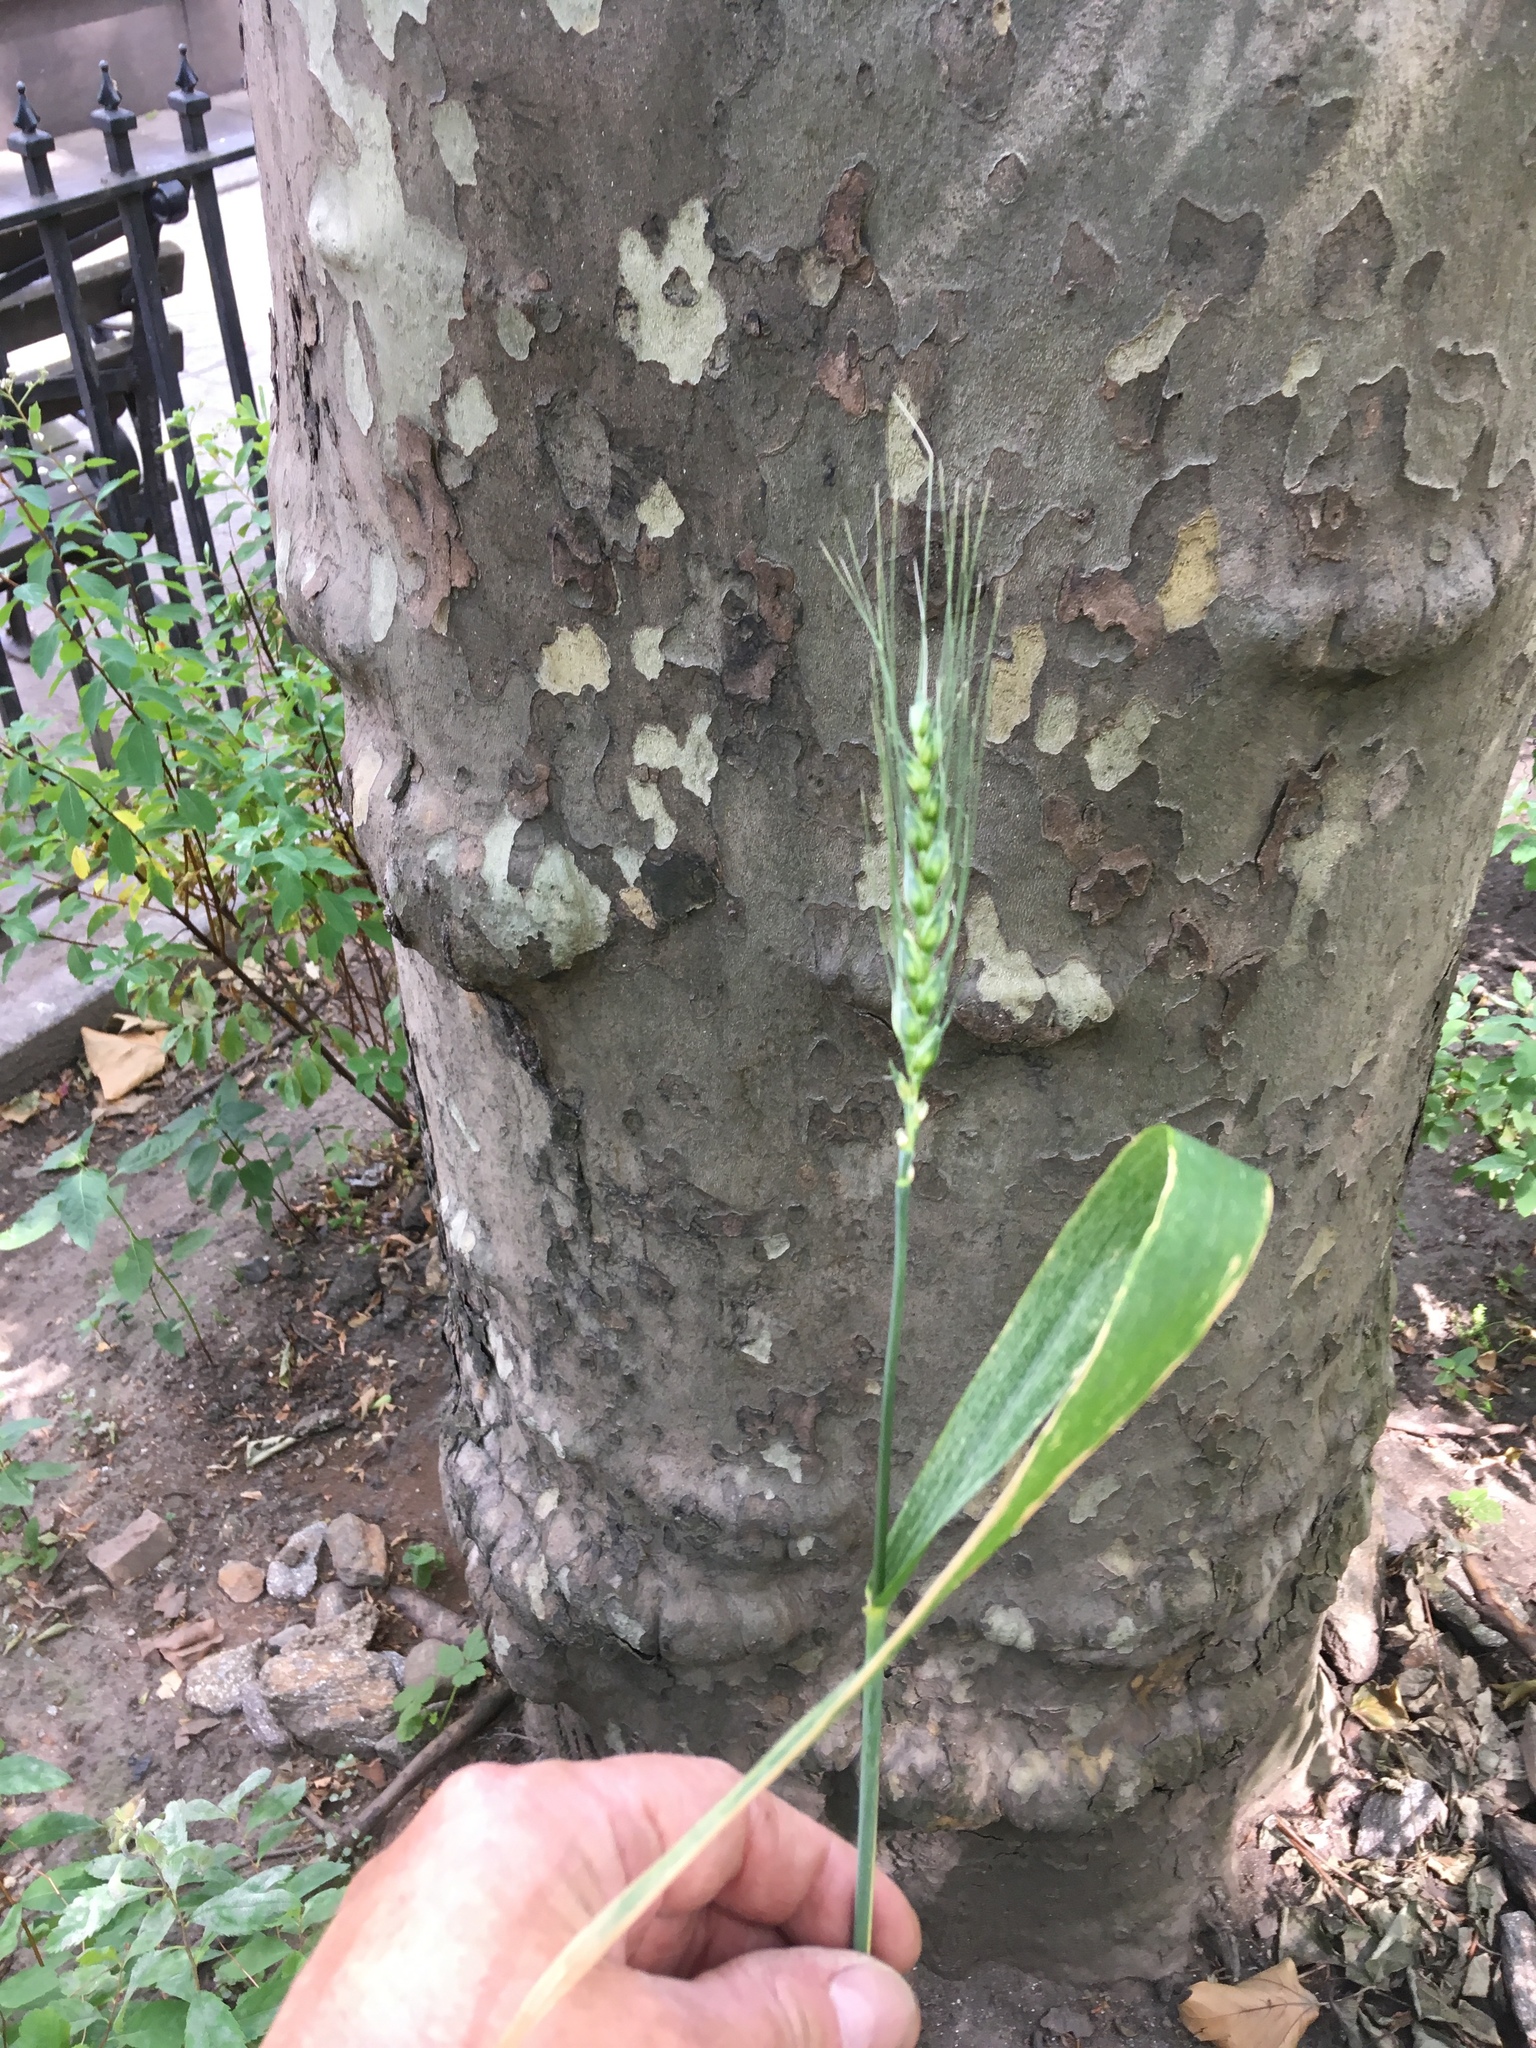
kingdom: Plantae
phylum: Tracheophyta
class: Liliopsida
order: Poales
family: Poaceae
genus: Triticum
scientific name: Triticum aestivum
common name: Common wheat
